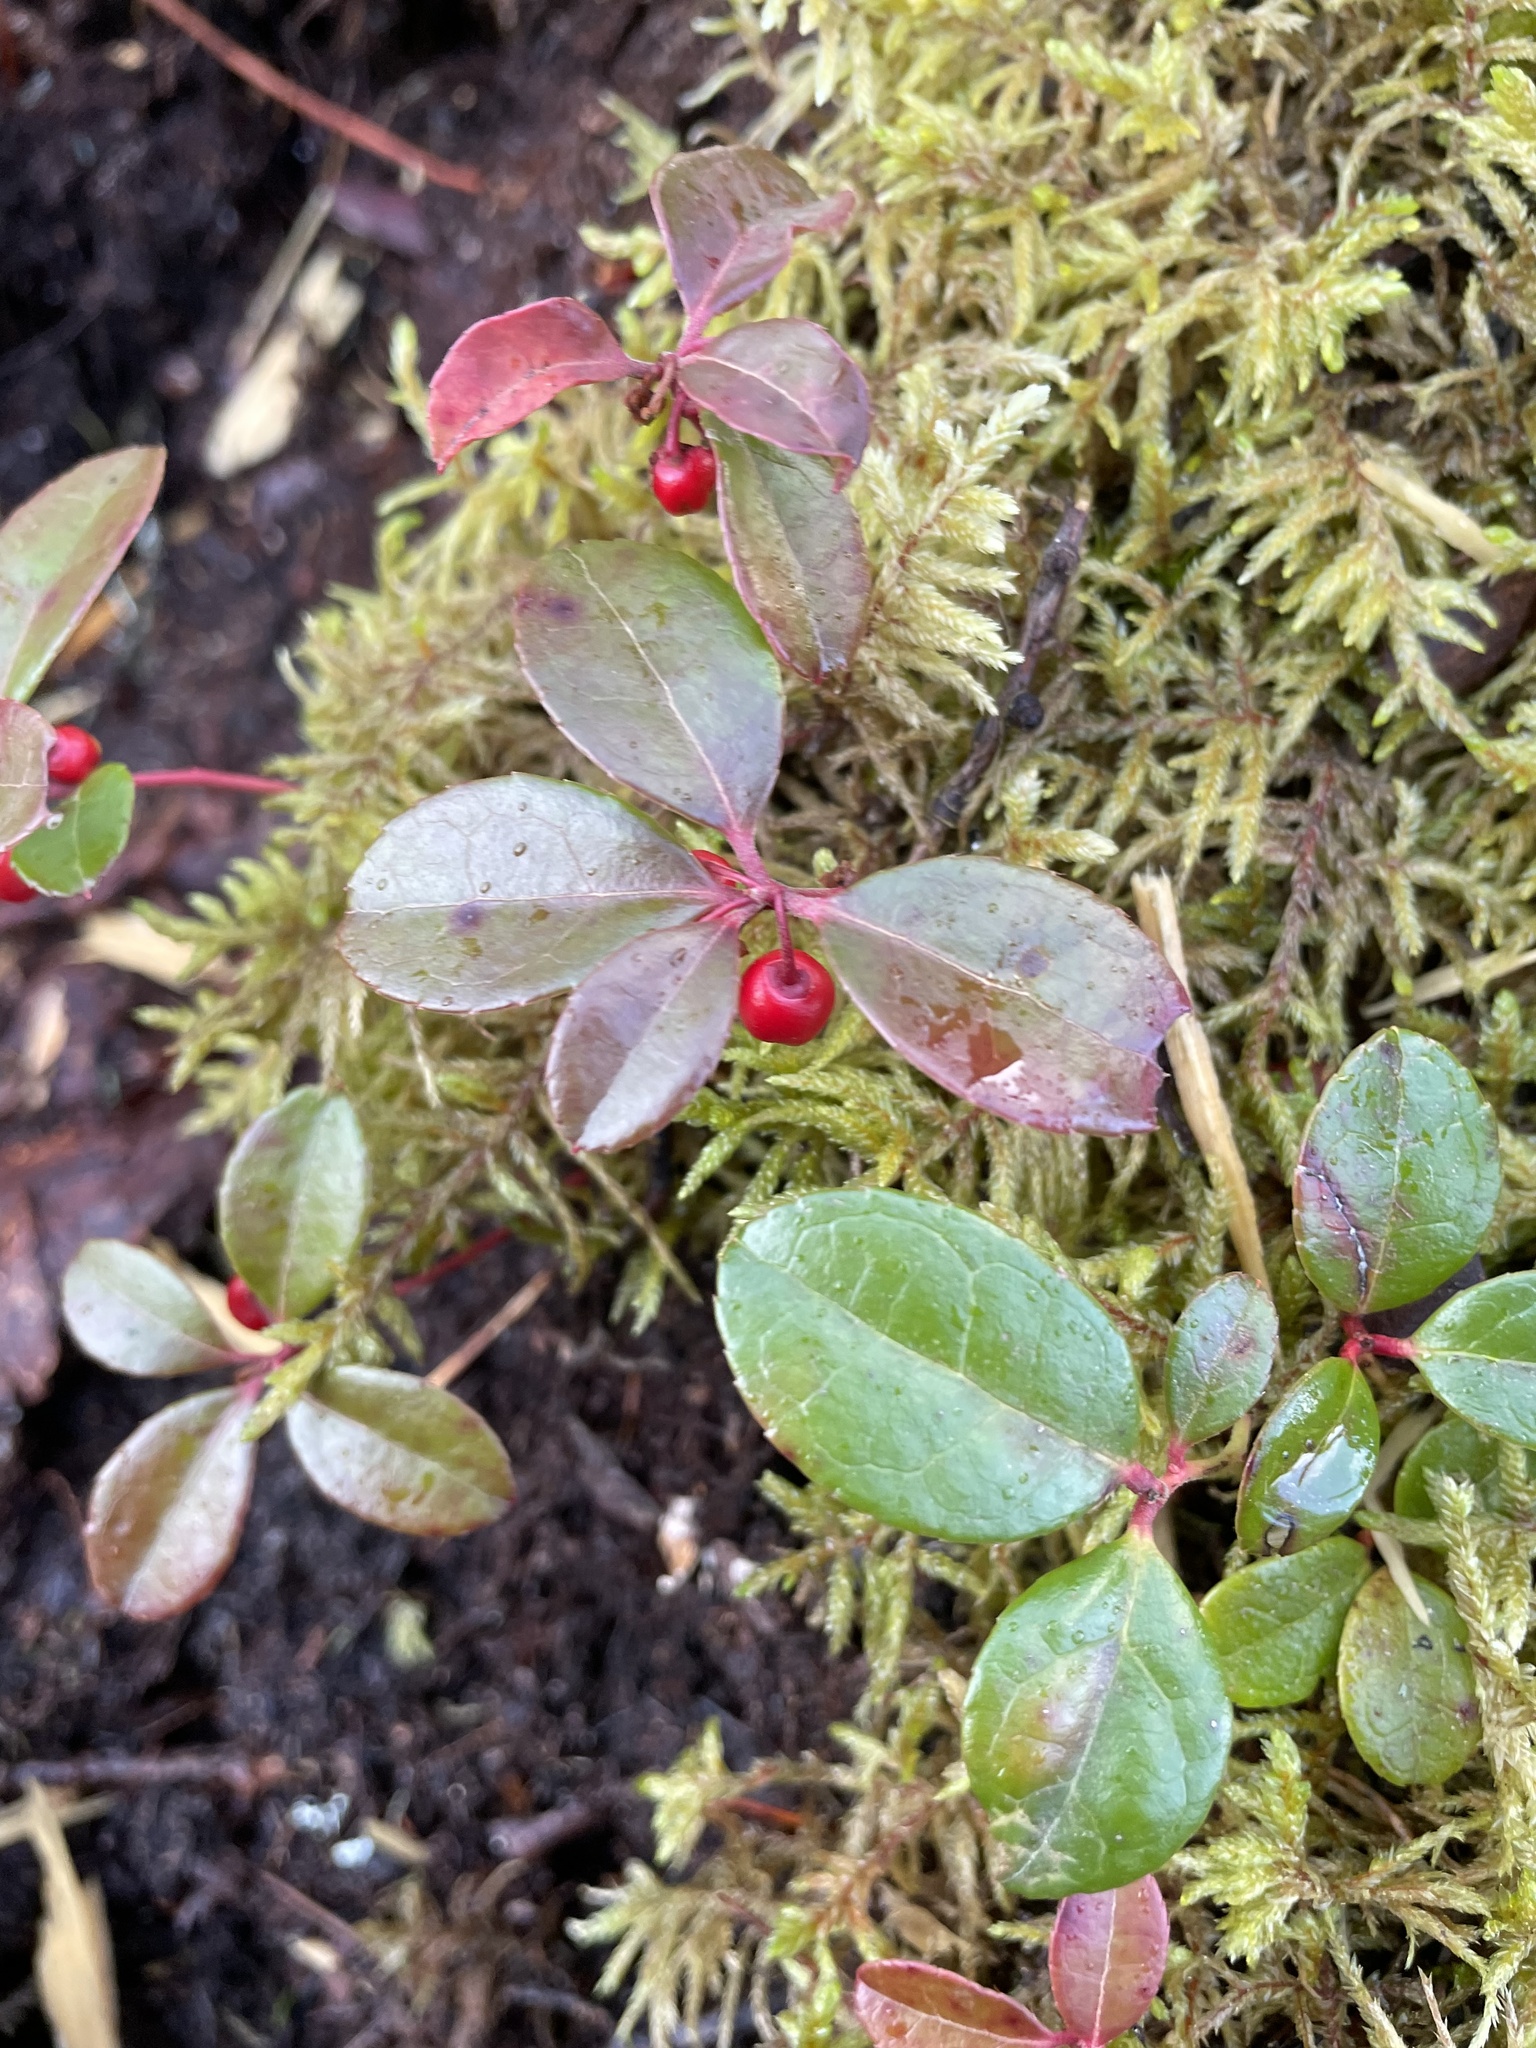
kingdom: Plantae
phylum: Tracheophyta
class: Magnoliopsida
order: Ericales
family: Ericaceae
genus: Gaultheria
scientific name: Gaultheria procumbens
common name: Checkerberry
